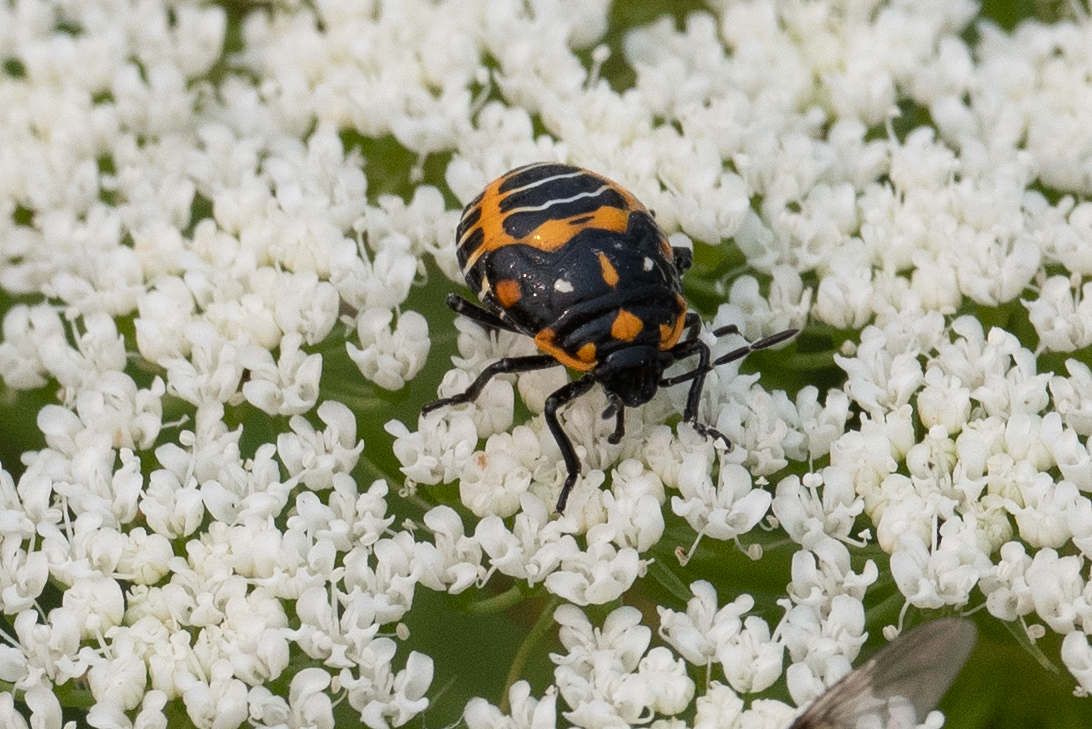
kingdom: Animalia
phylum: Arthropoda
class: Insecta
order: Hemiptera
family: Pentatomidae
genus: Murgantia
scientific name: Murgantia histrionica
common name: Harlequin bug
